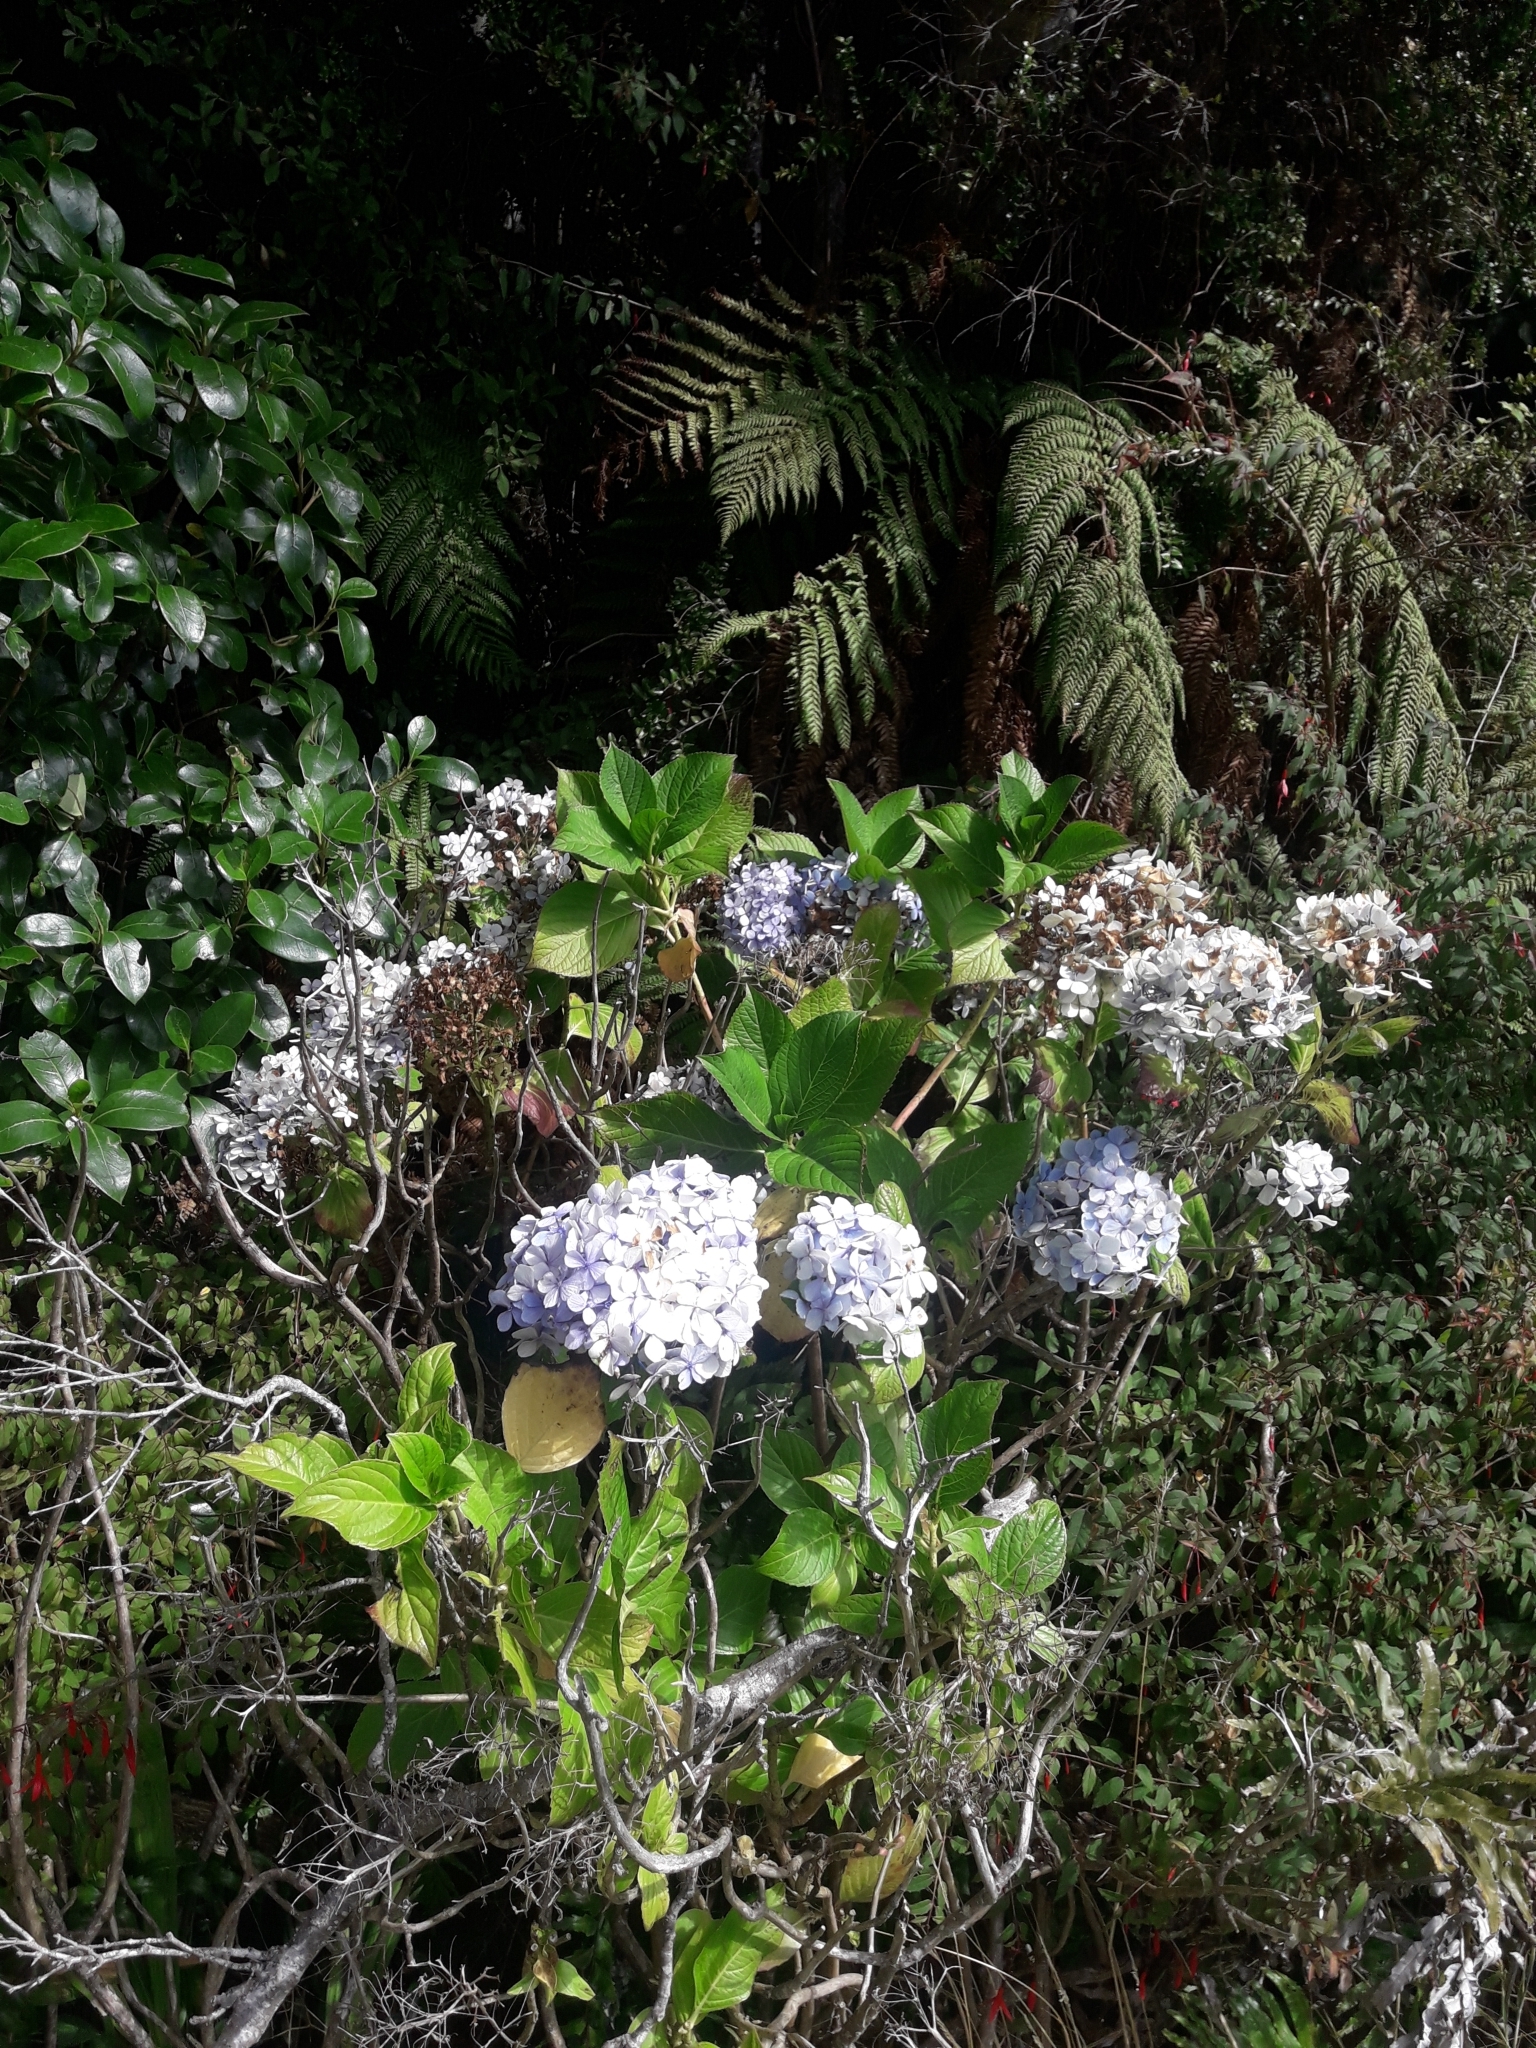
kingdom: Plantae
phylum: Tracheophyta
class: Magnoliopsida
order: Cornales
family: Hydrangeaceae
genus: Hydrangea
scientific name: Hydrangea macrophylla
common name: Hydrangea
